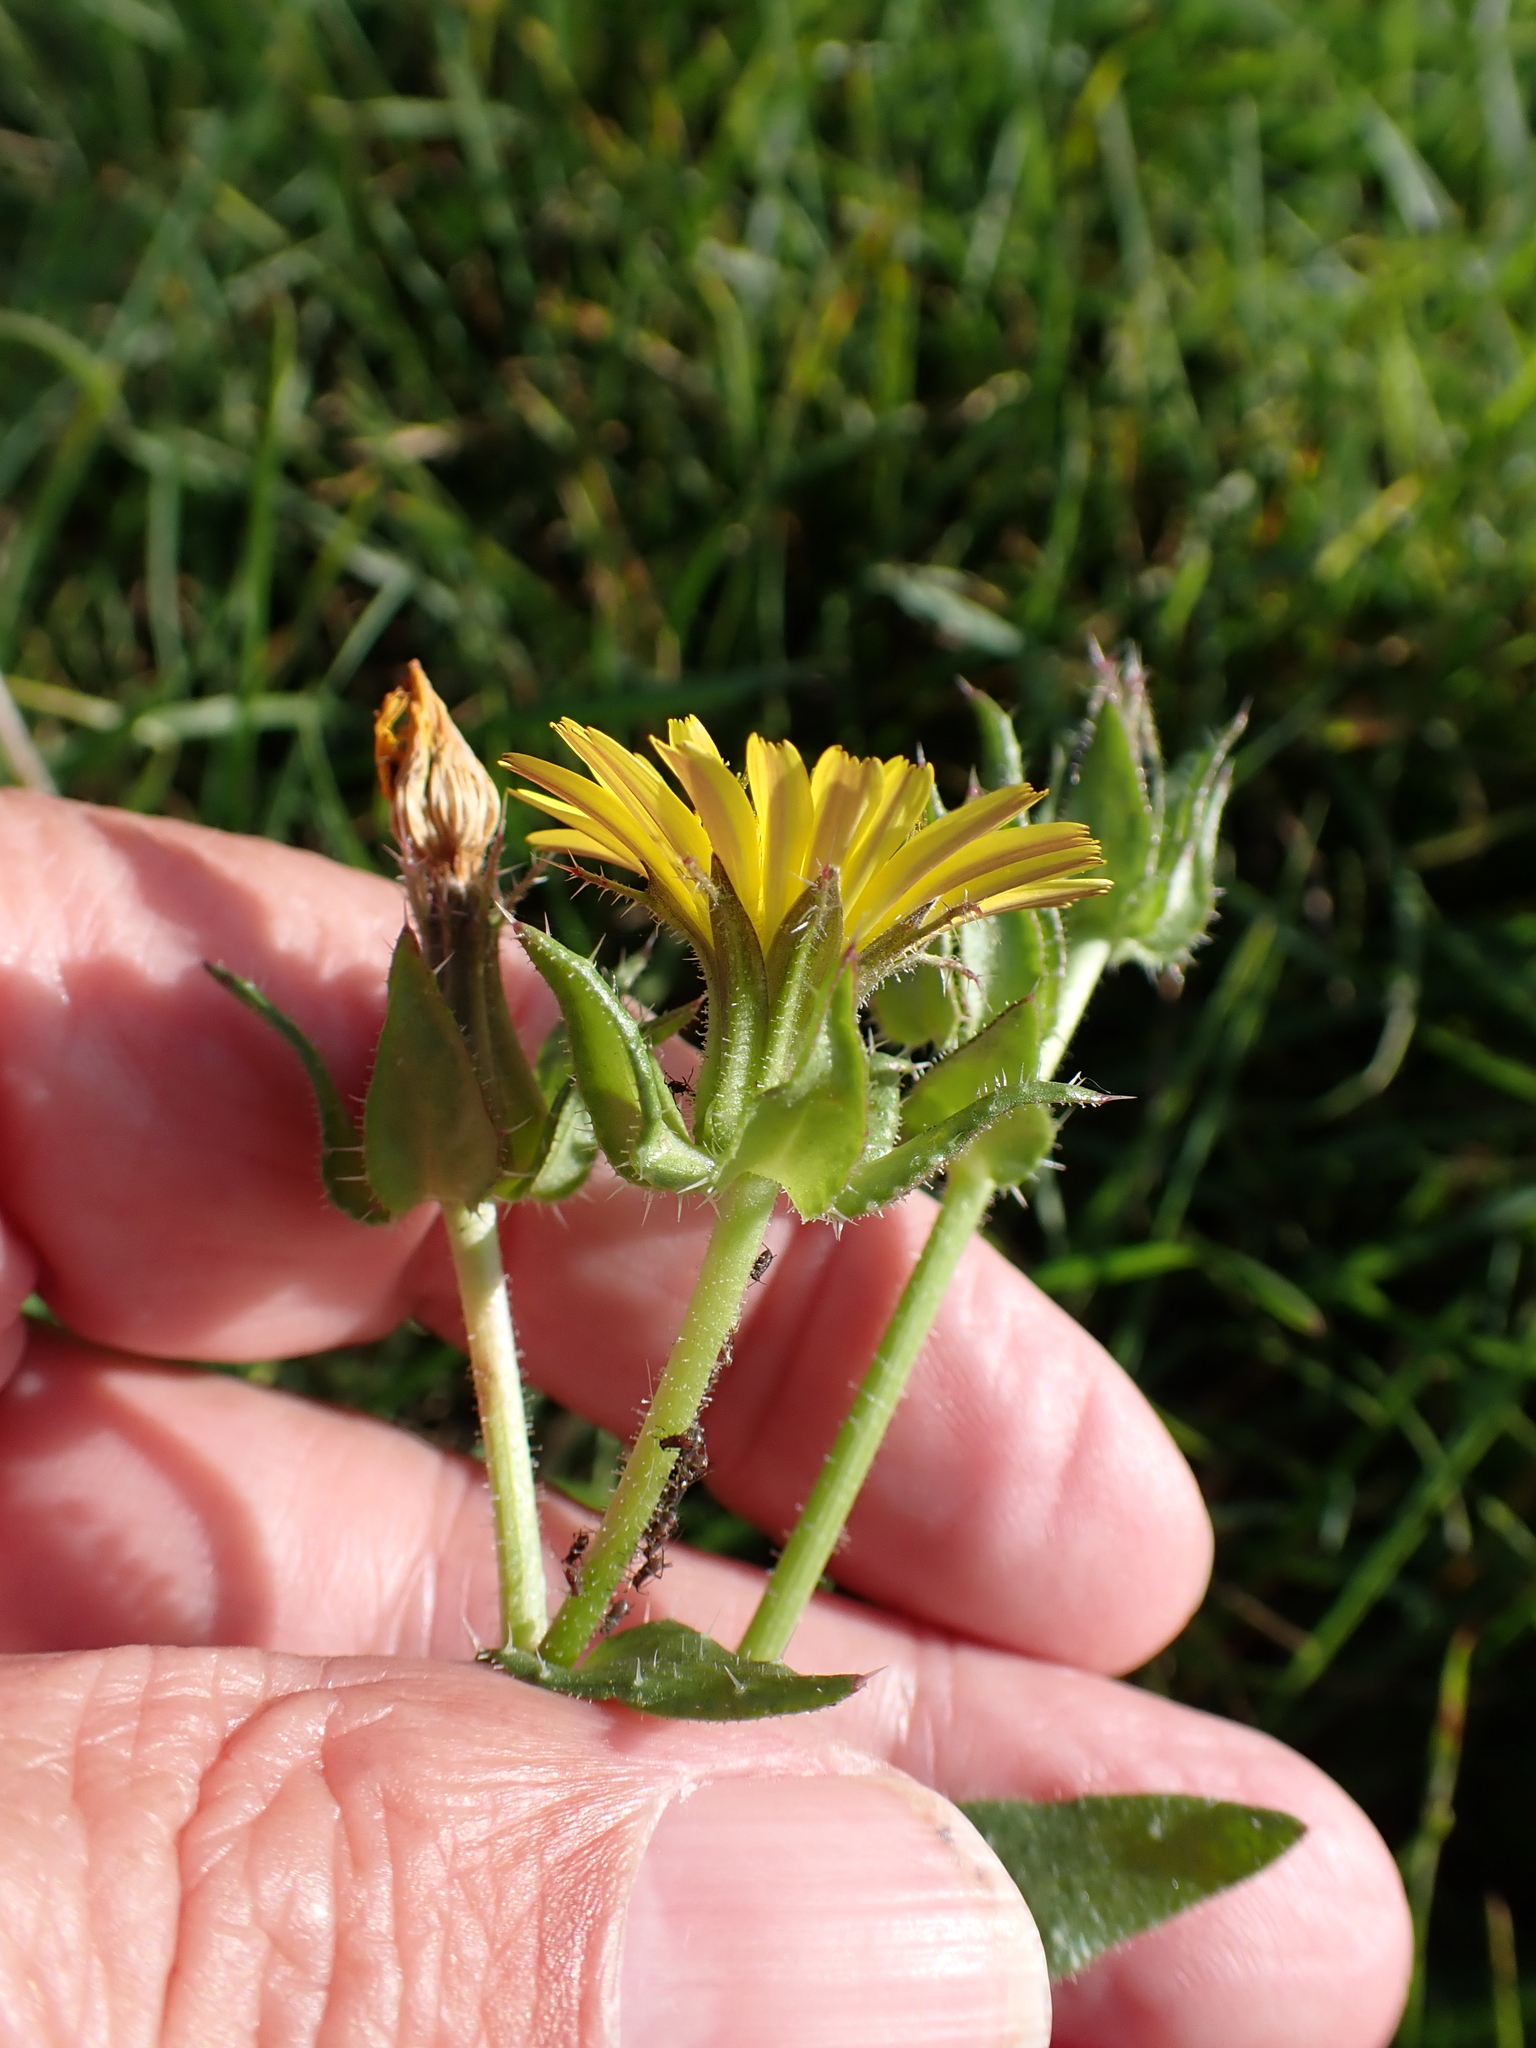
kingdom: Plantae
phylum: Tracheophyta
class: Magnoliopsida
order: Asterales
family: Asteraceae
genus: Helminthotheca
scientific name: Helminthotheca echioides
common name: Ox-tongue
